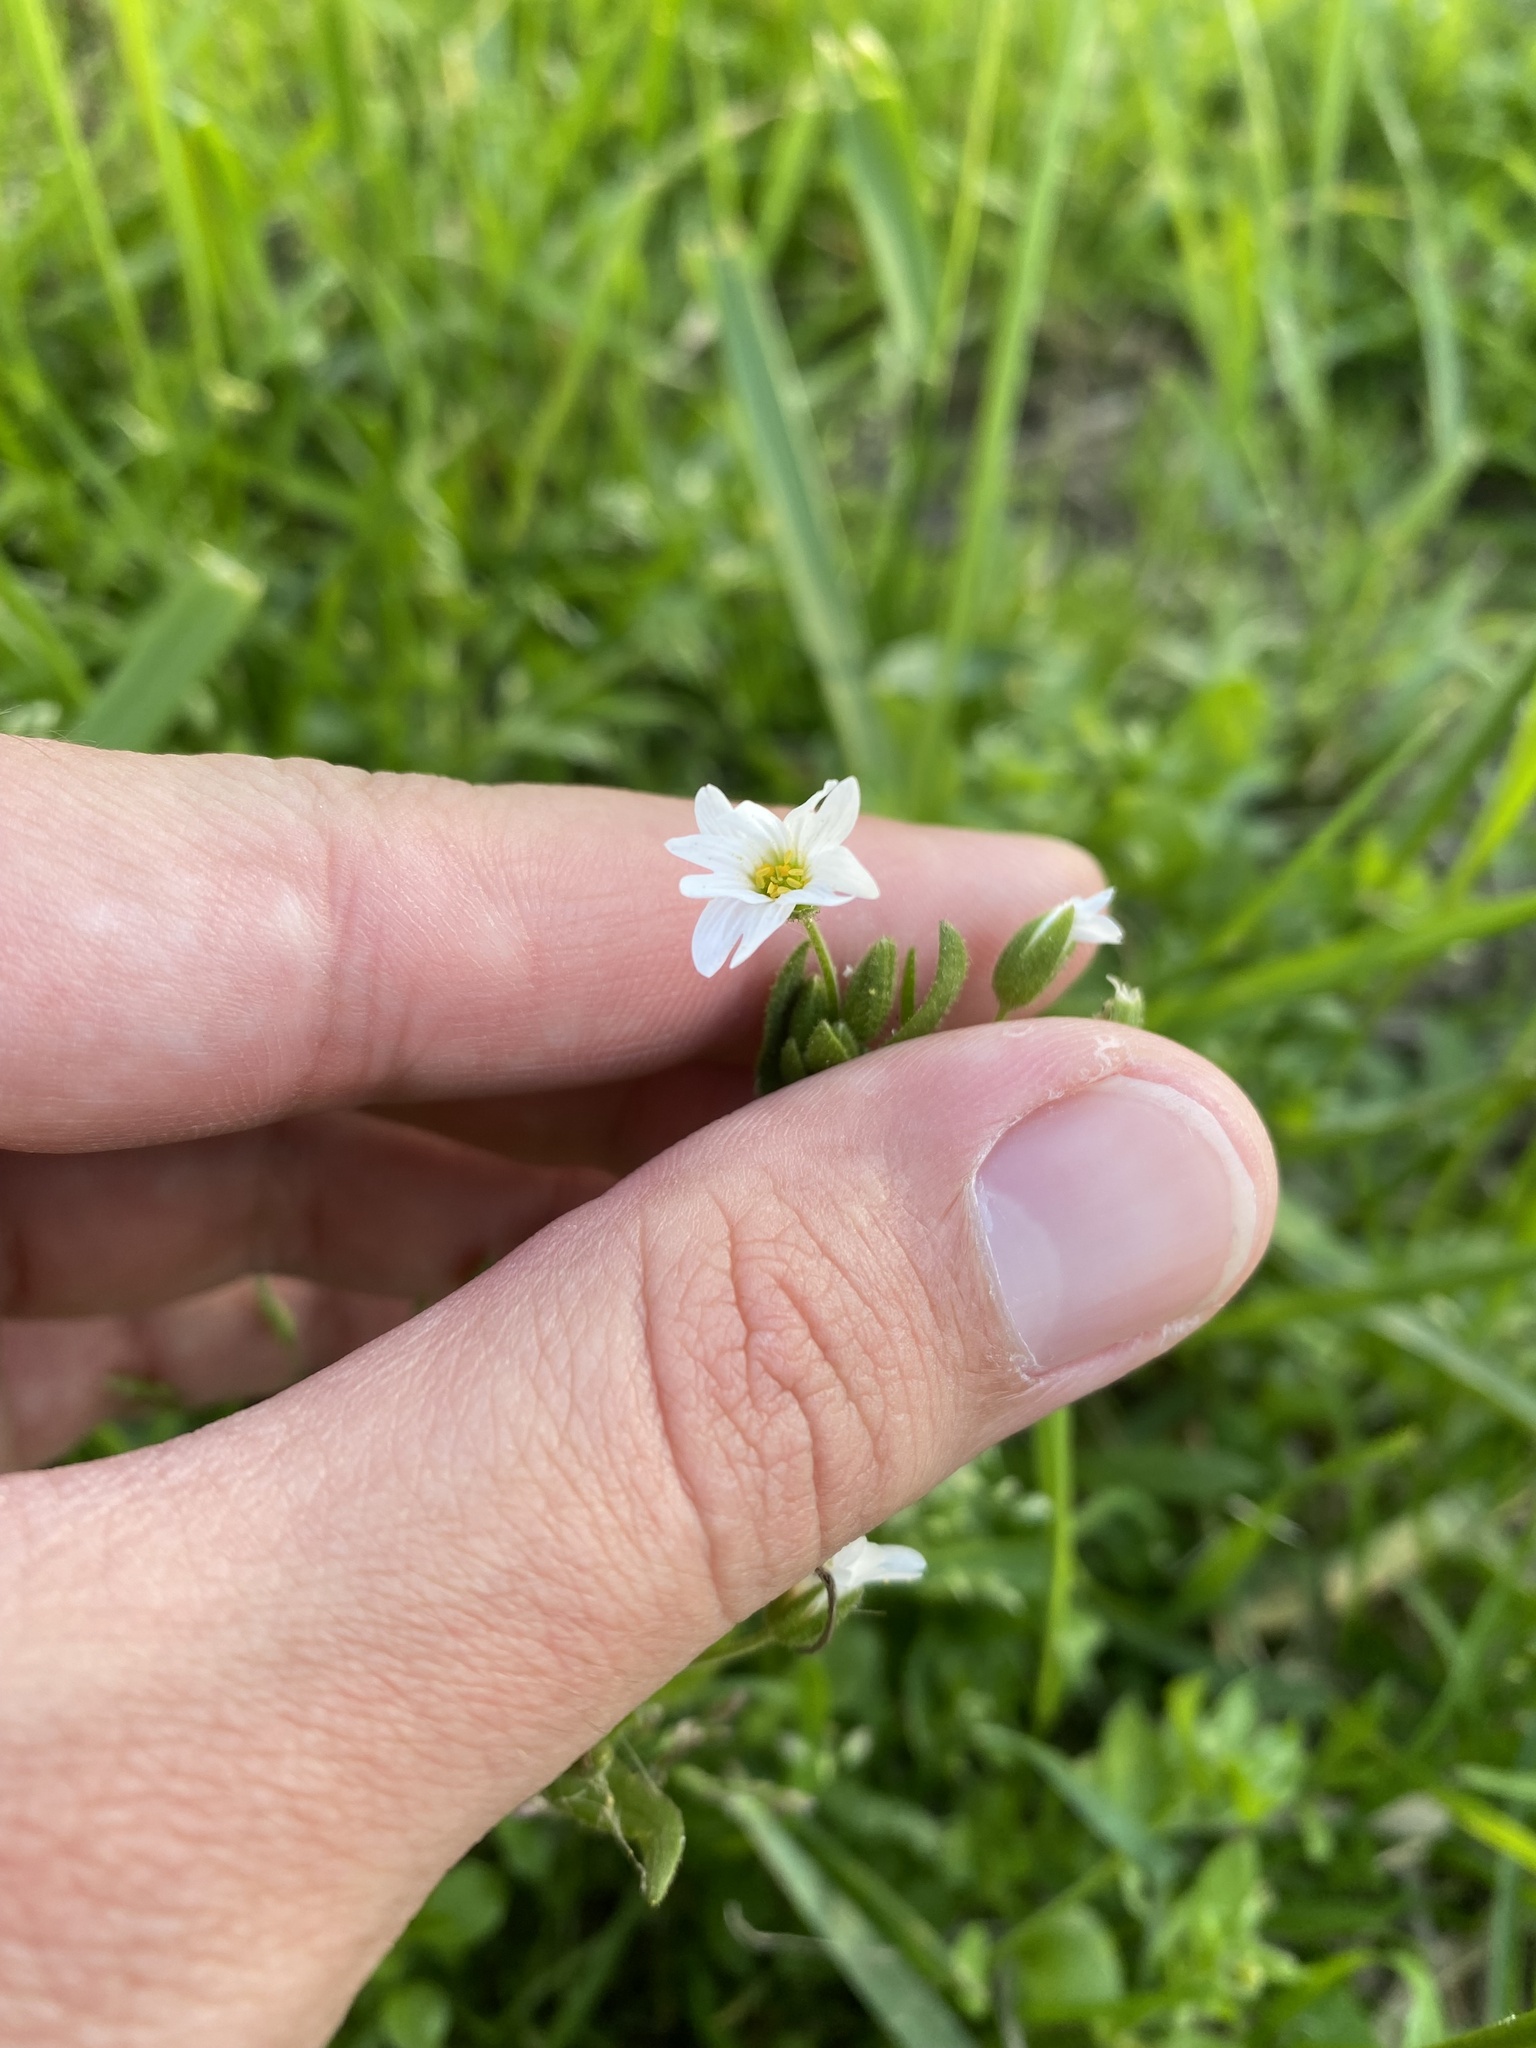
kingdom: Plantae
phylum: Tracheophyta
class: Magnoliopsida
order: Caryophyllales
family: Caryophyllaceae
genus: Cerastium
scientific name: Cerastium nemorale
